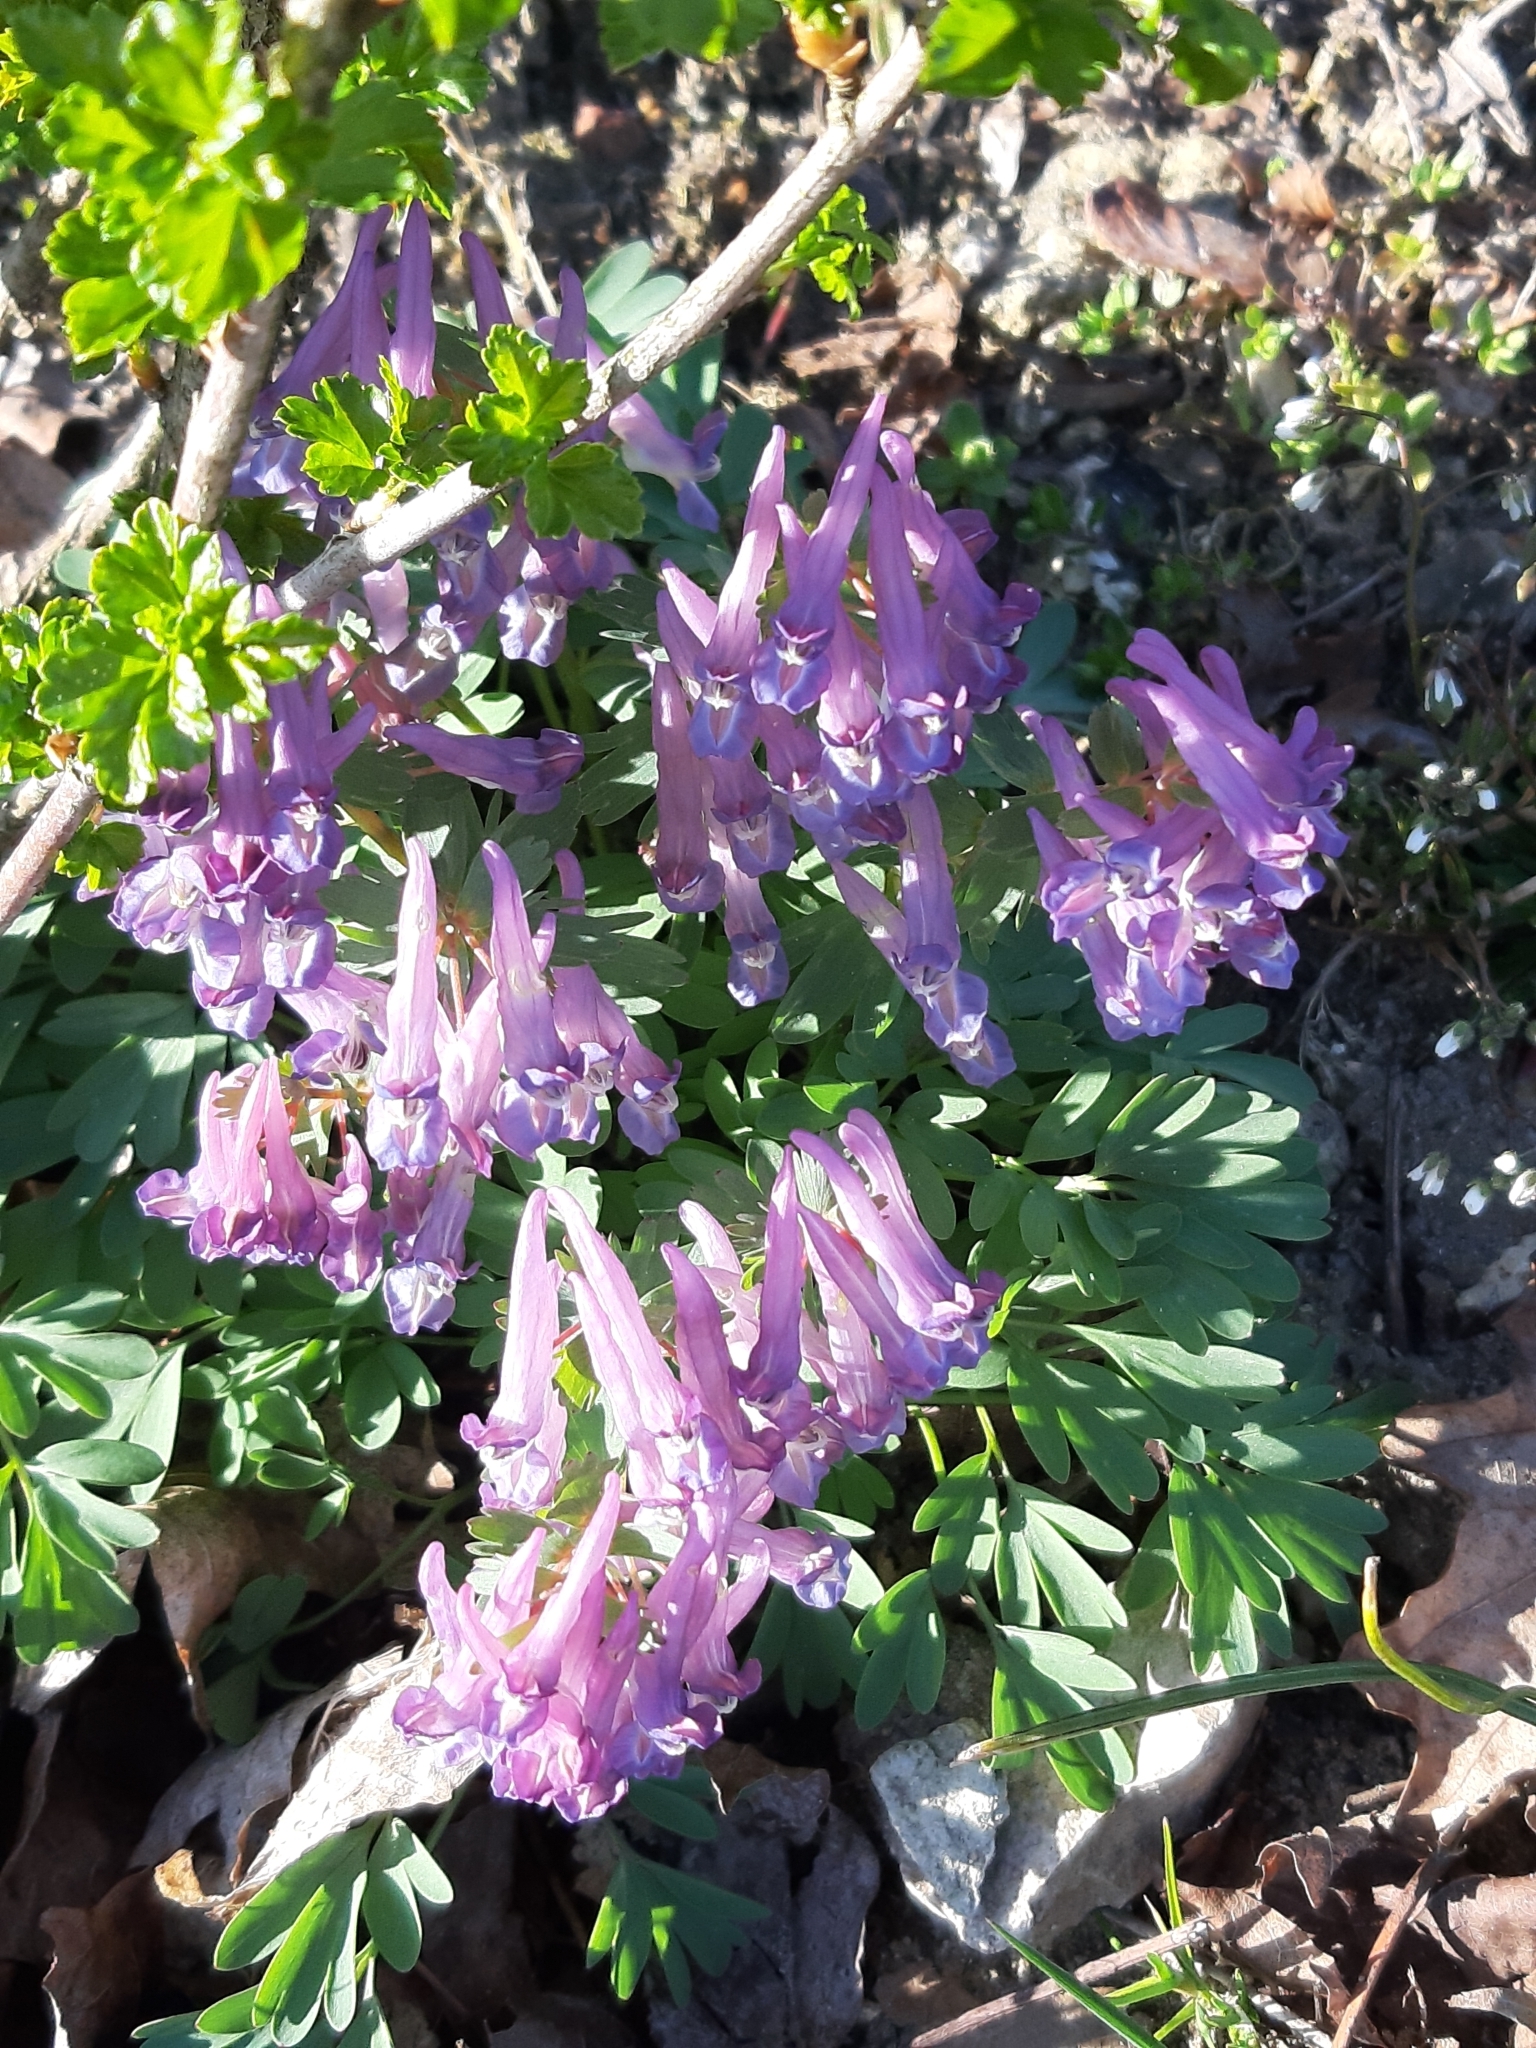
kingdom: Plantae
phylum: Tracheophyta
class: Magnoliopsida
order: Ranunculales
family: Papaveraceae
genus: Corydalis
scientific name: Corydalis solida
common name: Bird-in-a-bush
